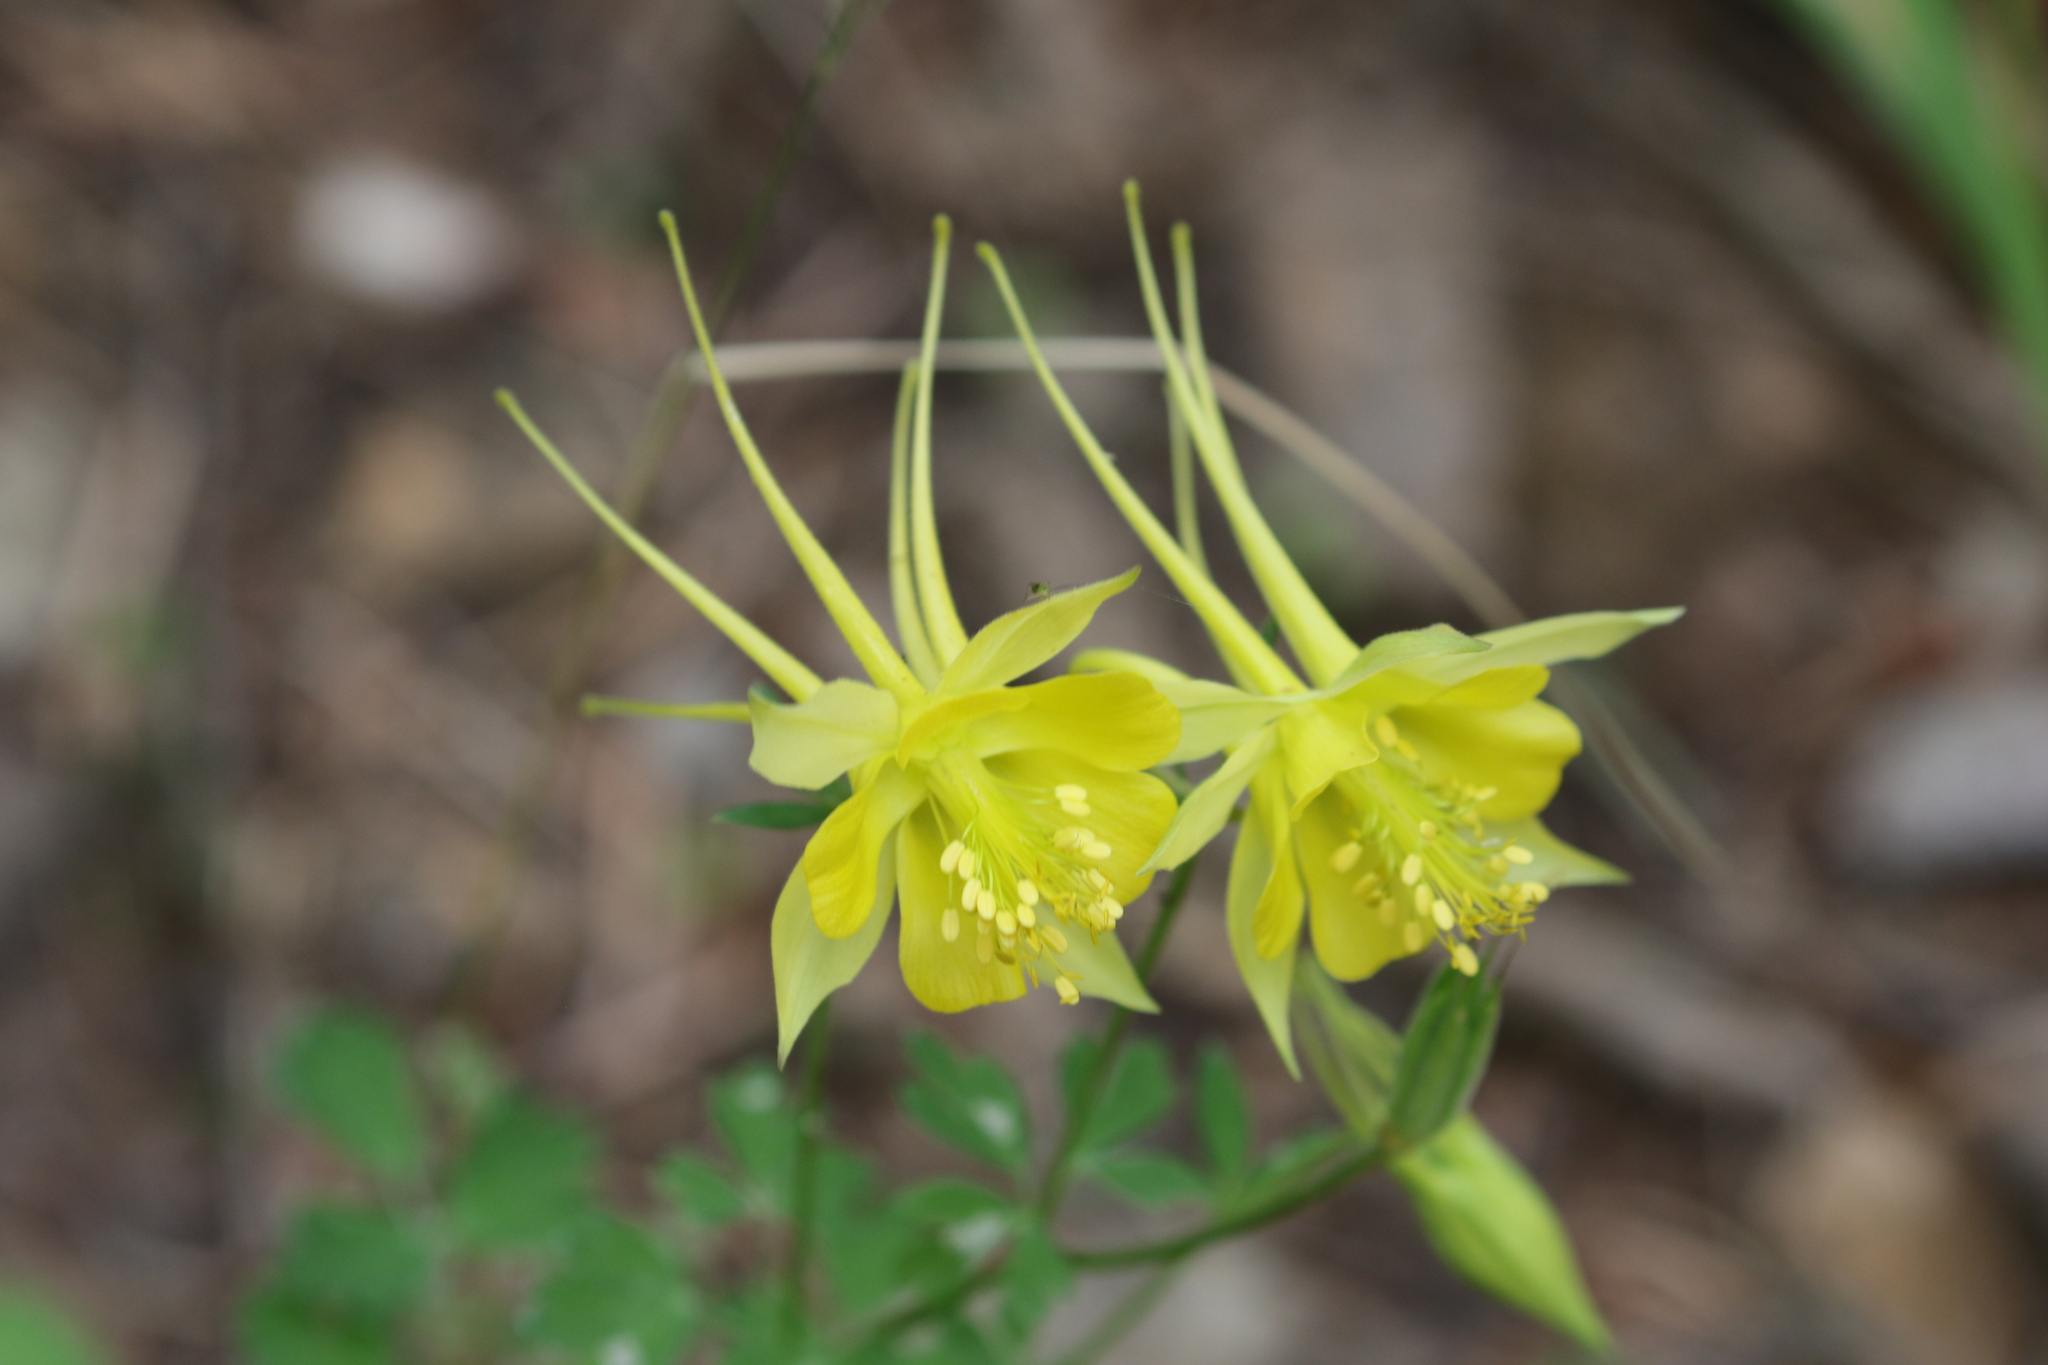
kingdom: Plantae
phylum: Tracheophyta
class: Magnoliopsida
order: Ranunculales
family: Ranunculaceae
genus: Aquilegia
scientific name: Aquilegia chrysantha
